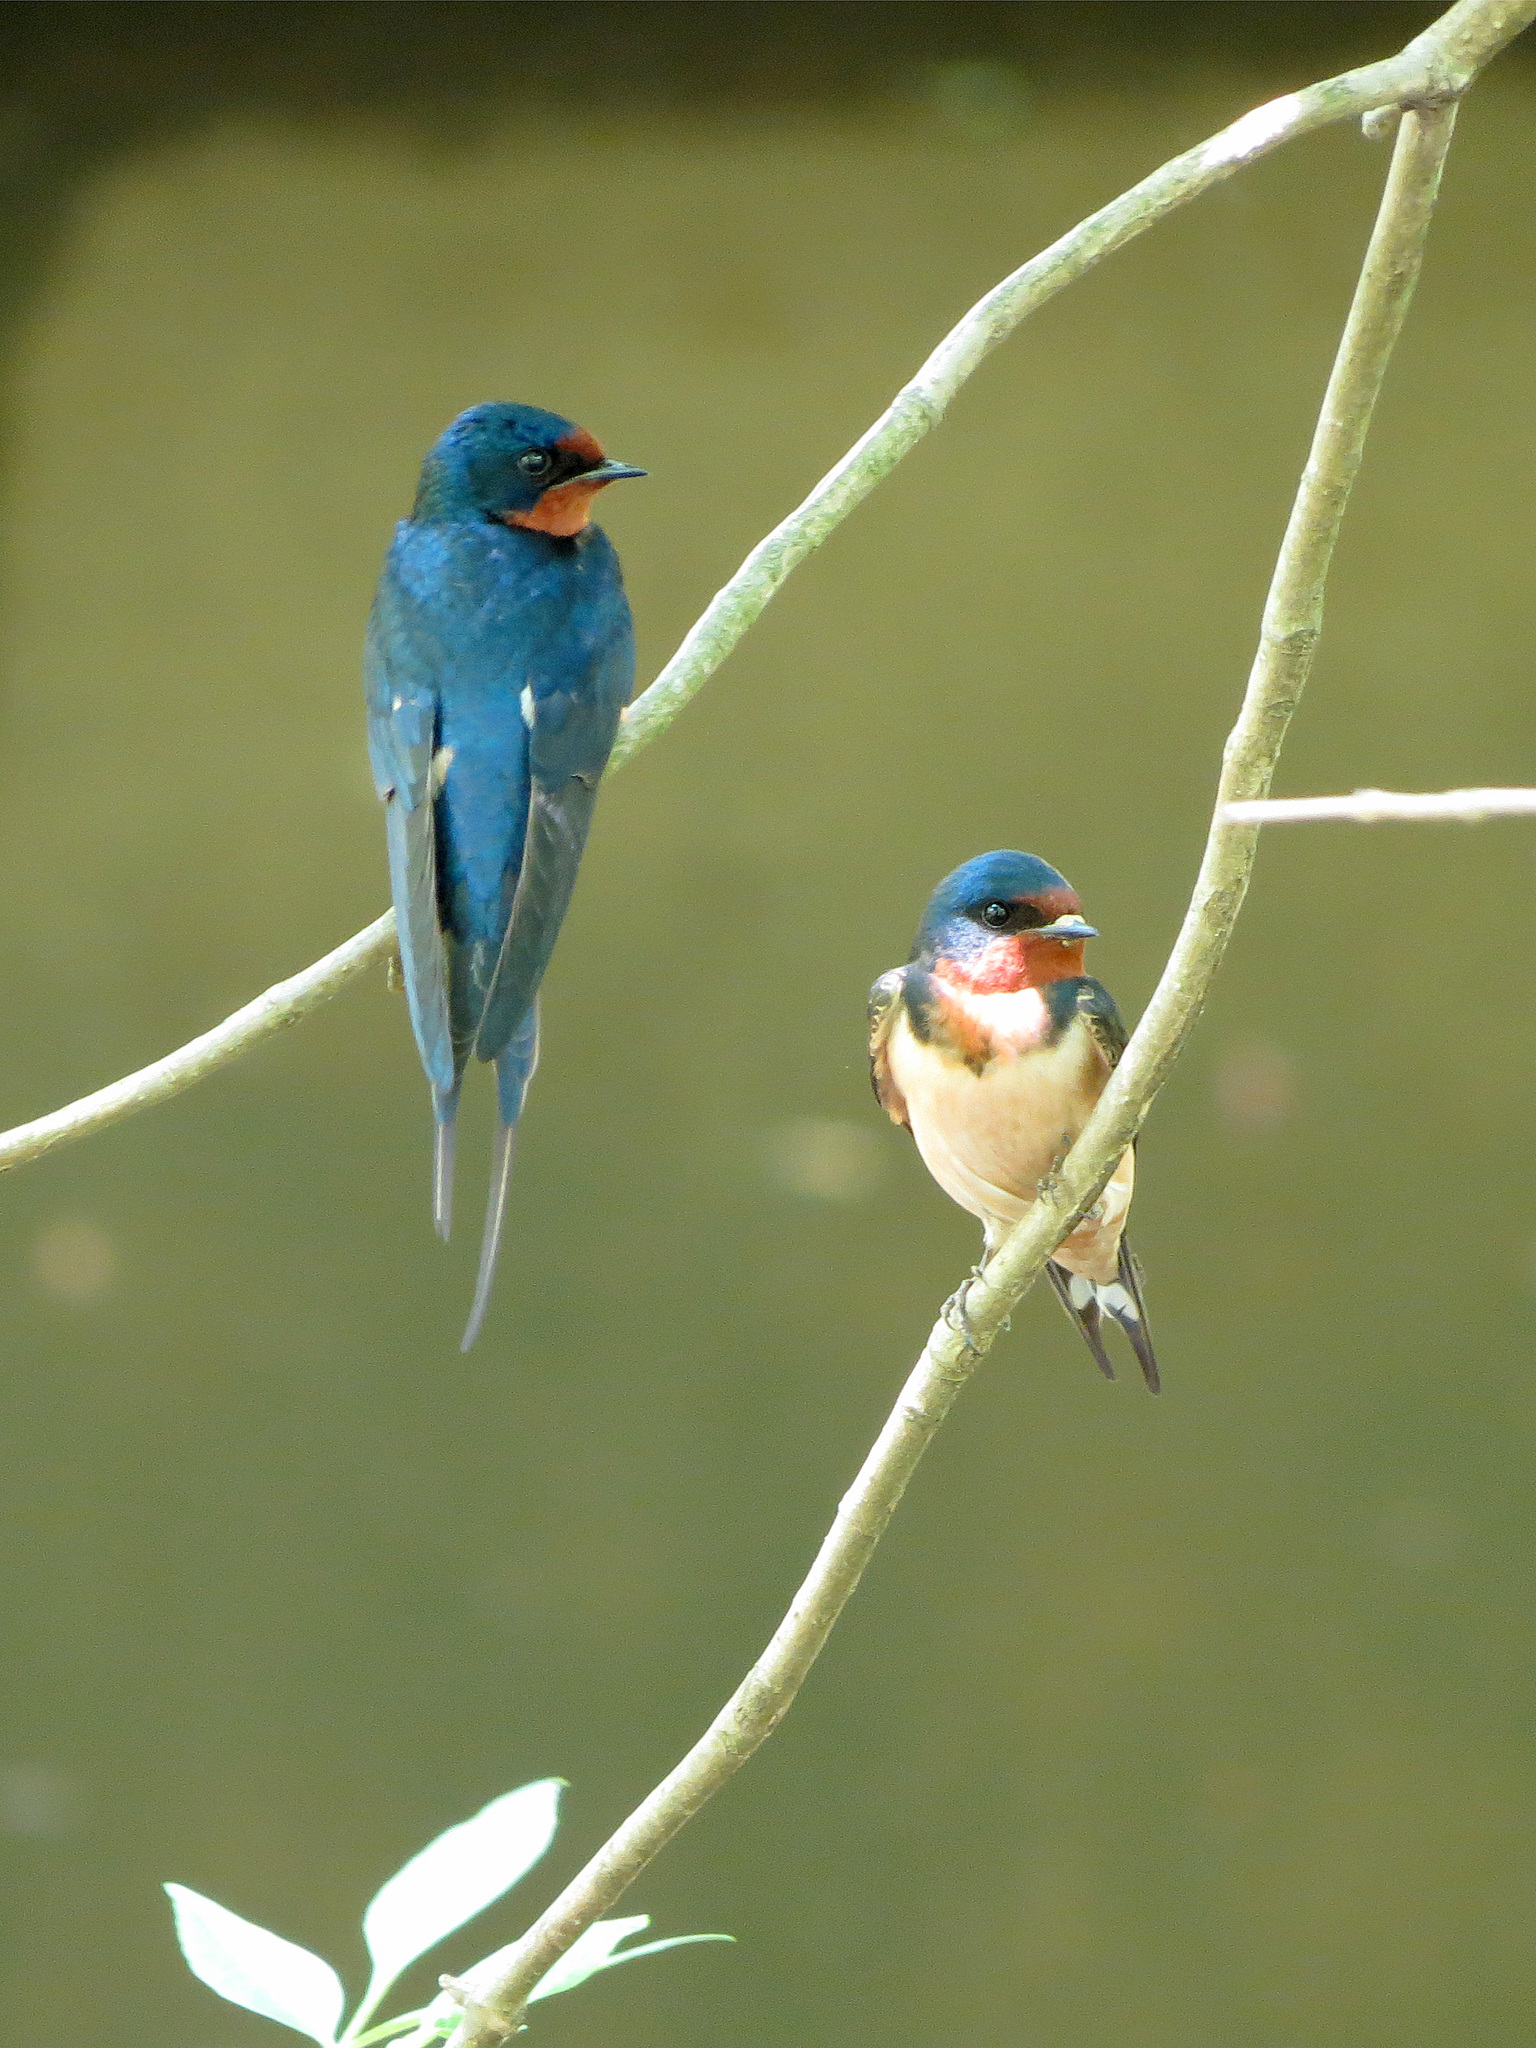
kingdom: Animalia
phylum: Chordata
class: Aves
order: Passeriformes
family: Hirundinidae
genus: Hirundo
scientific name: Hirundo rustica
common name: Barn swallow
